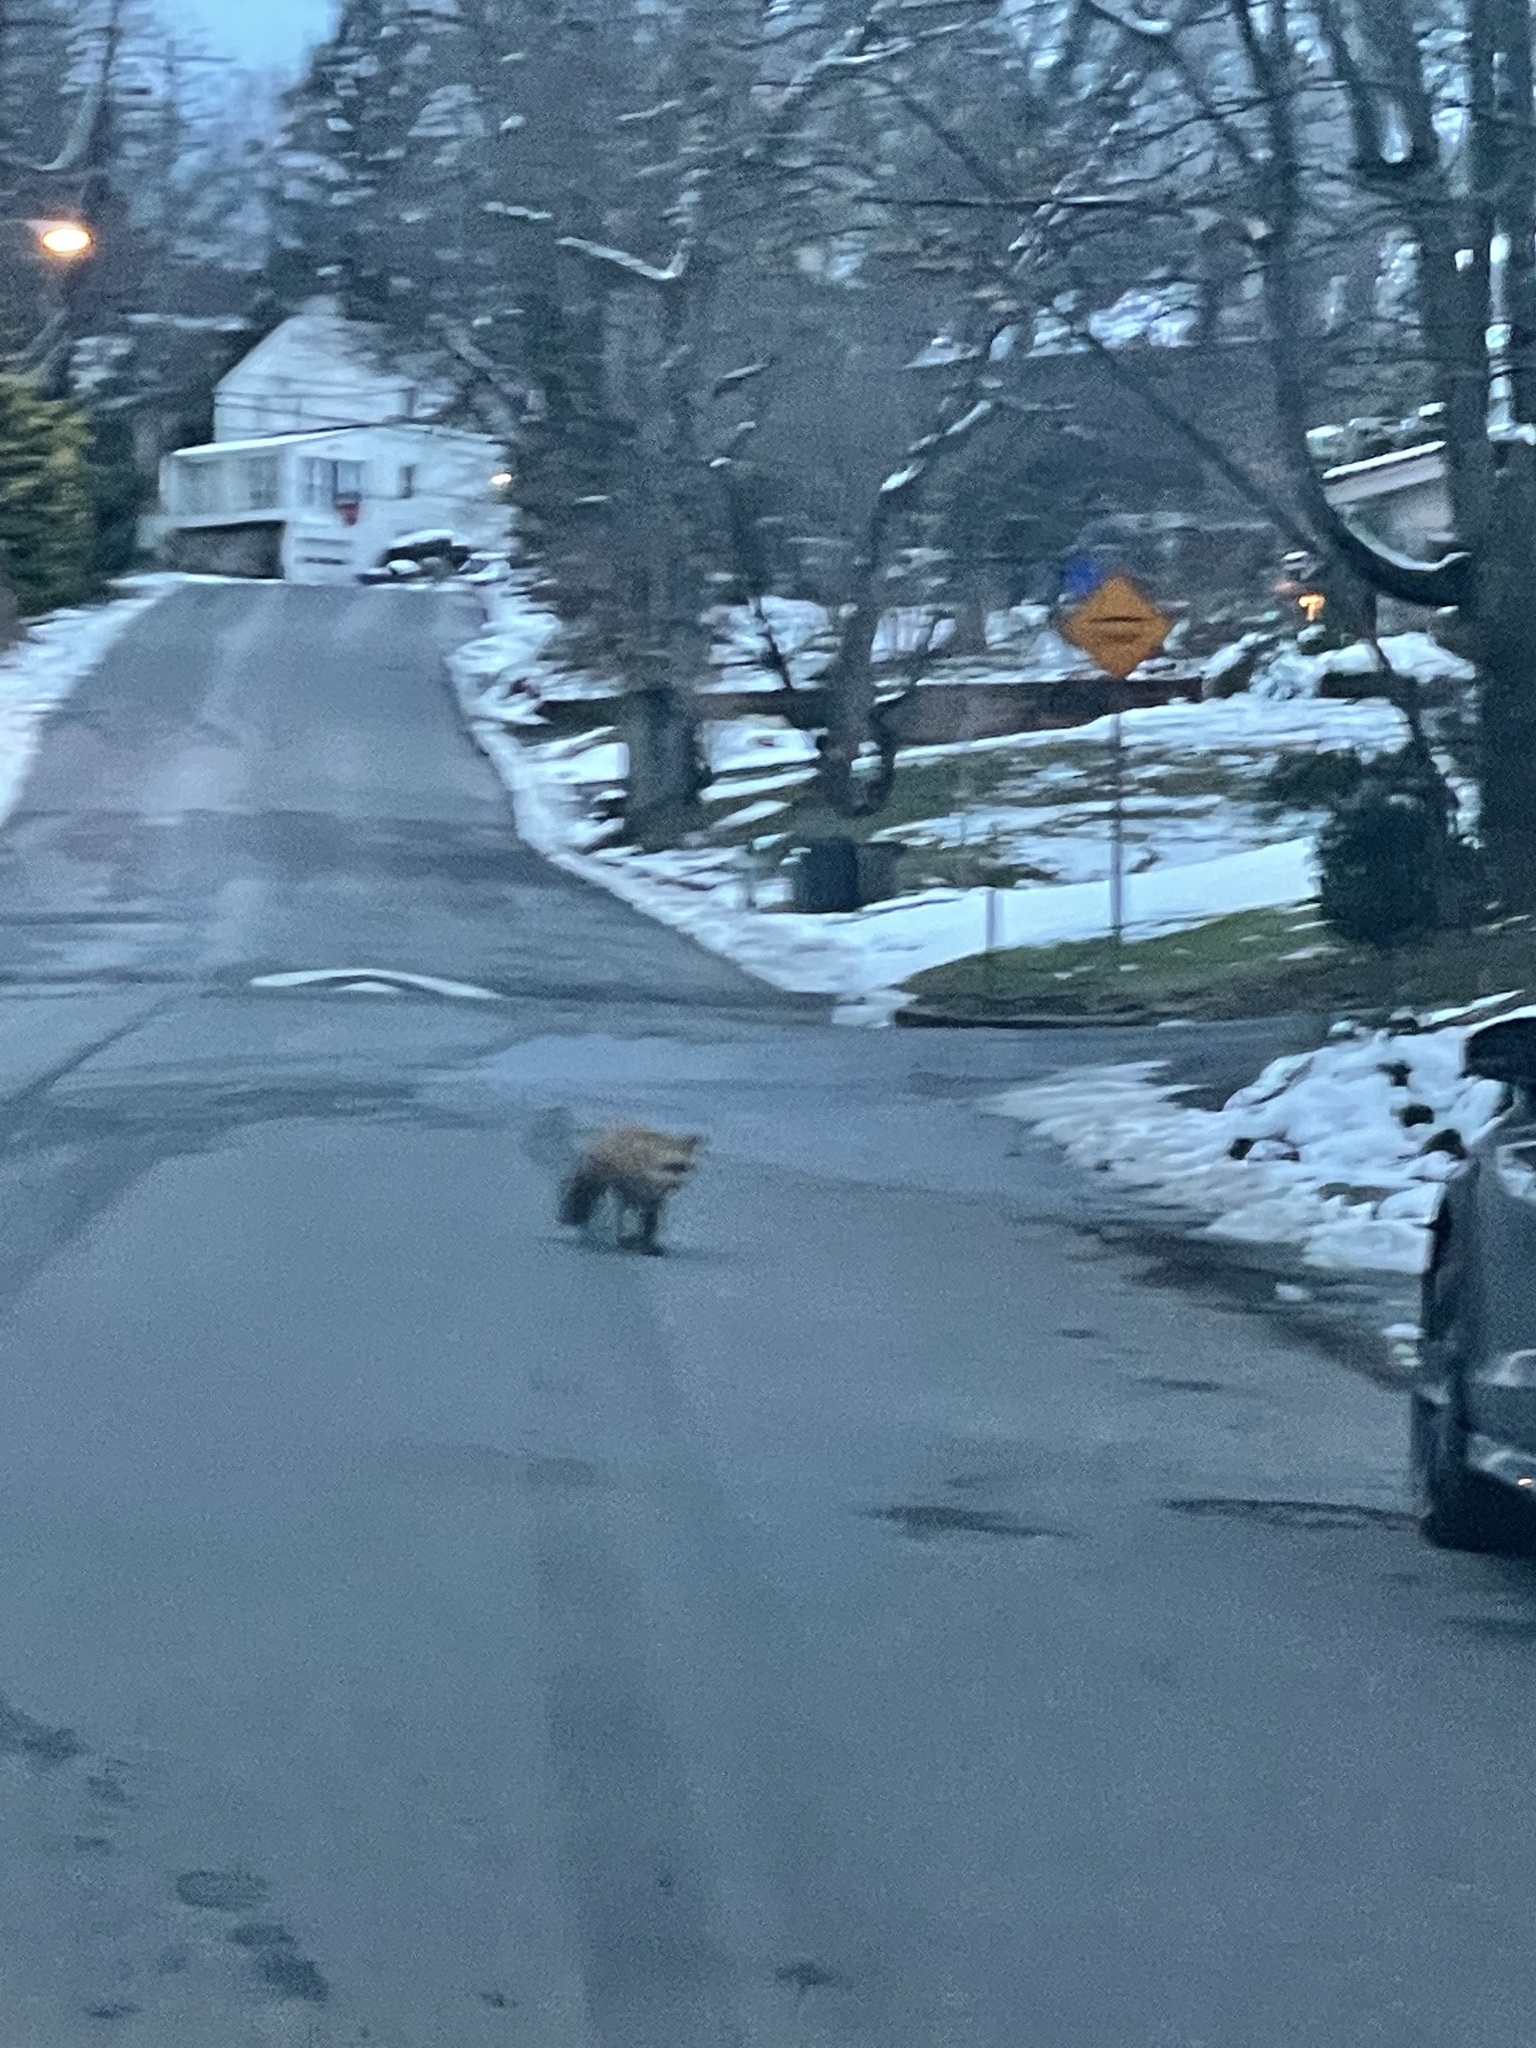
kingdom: Animalia
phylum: Chordata
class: Mammalia
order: Carnivora
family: Canidae
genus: Vulpes
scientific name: Vulpes vulpes
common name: Red fox
